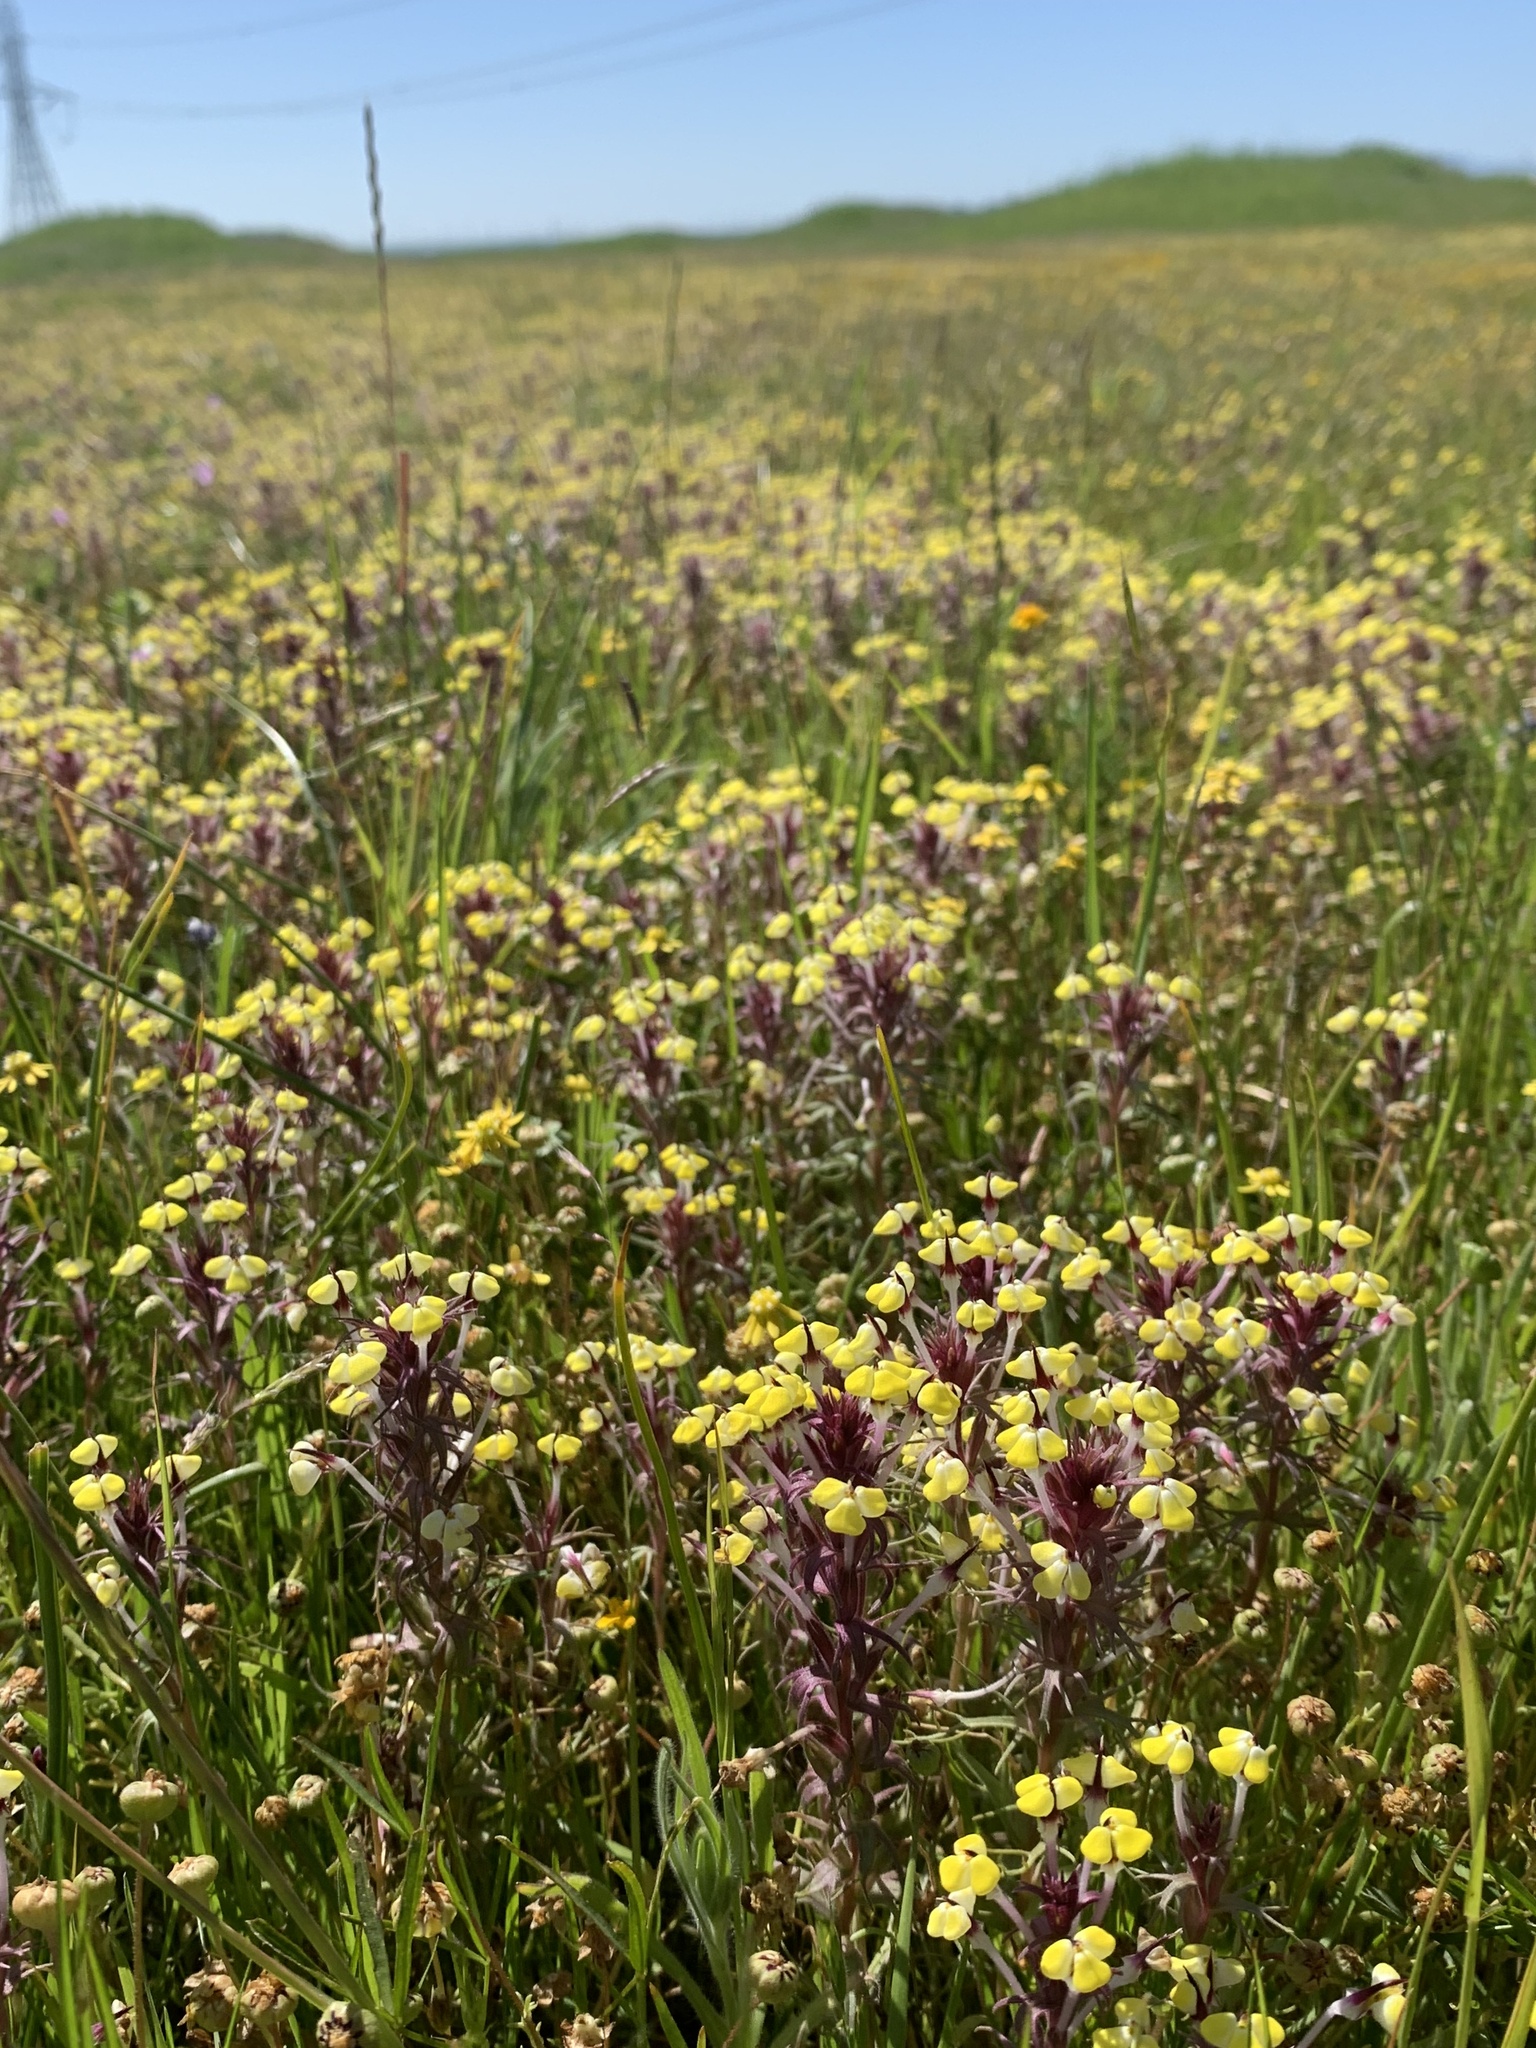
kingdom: Plantae
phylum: Tracheophyta
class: Magnoliopsida
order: Lamiales
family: Orobanchaceae
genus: Triphysaria
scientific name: Triphysaria eriantha
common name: Johnny-tuck
